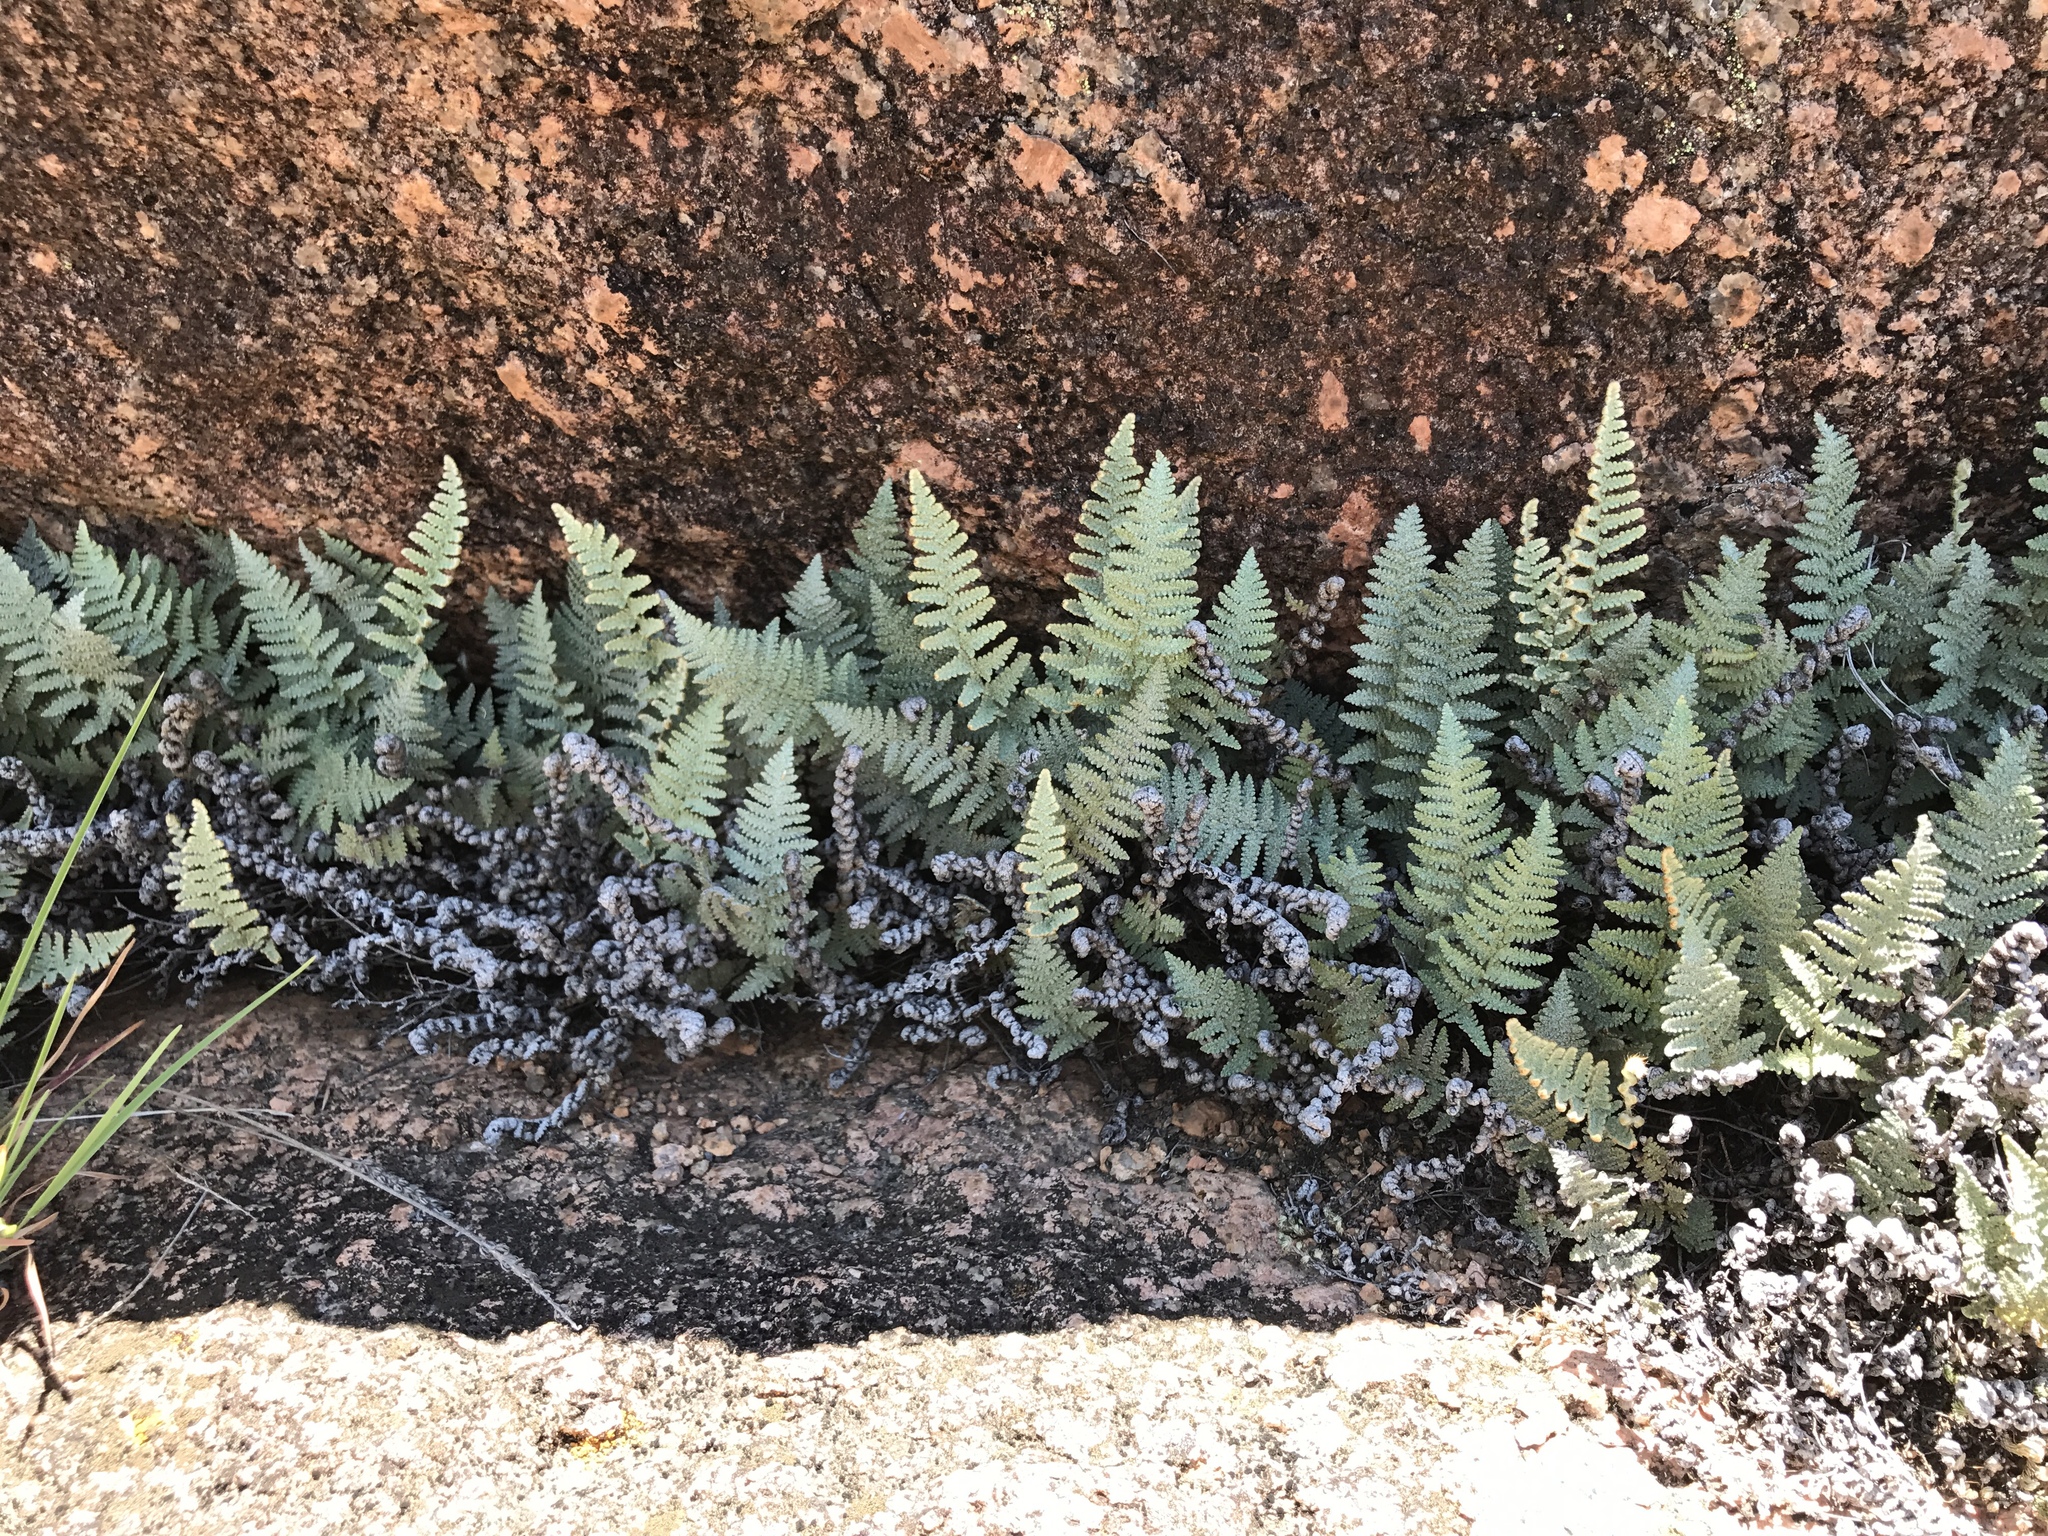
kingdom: Plantae
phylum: Tracheophyta
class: Polypodiopsida
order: Polypodiales
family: Pteridaceae
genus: Myriopteris
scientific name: Myriopteris lindheimeri
